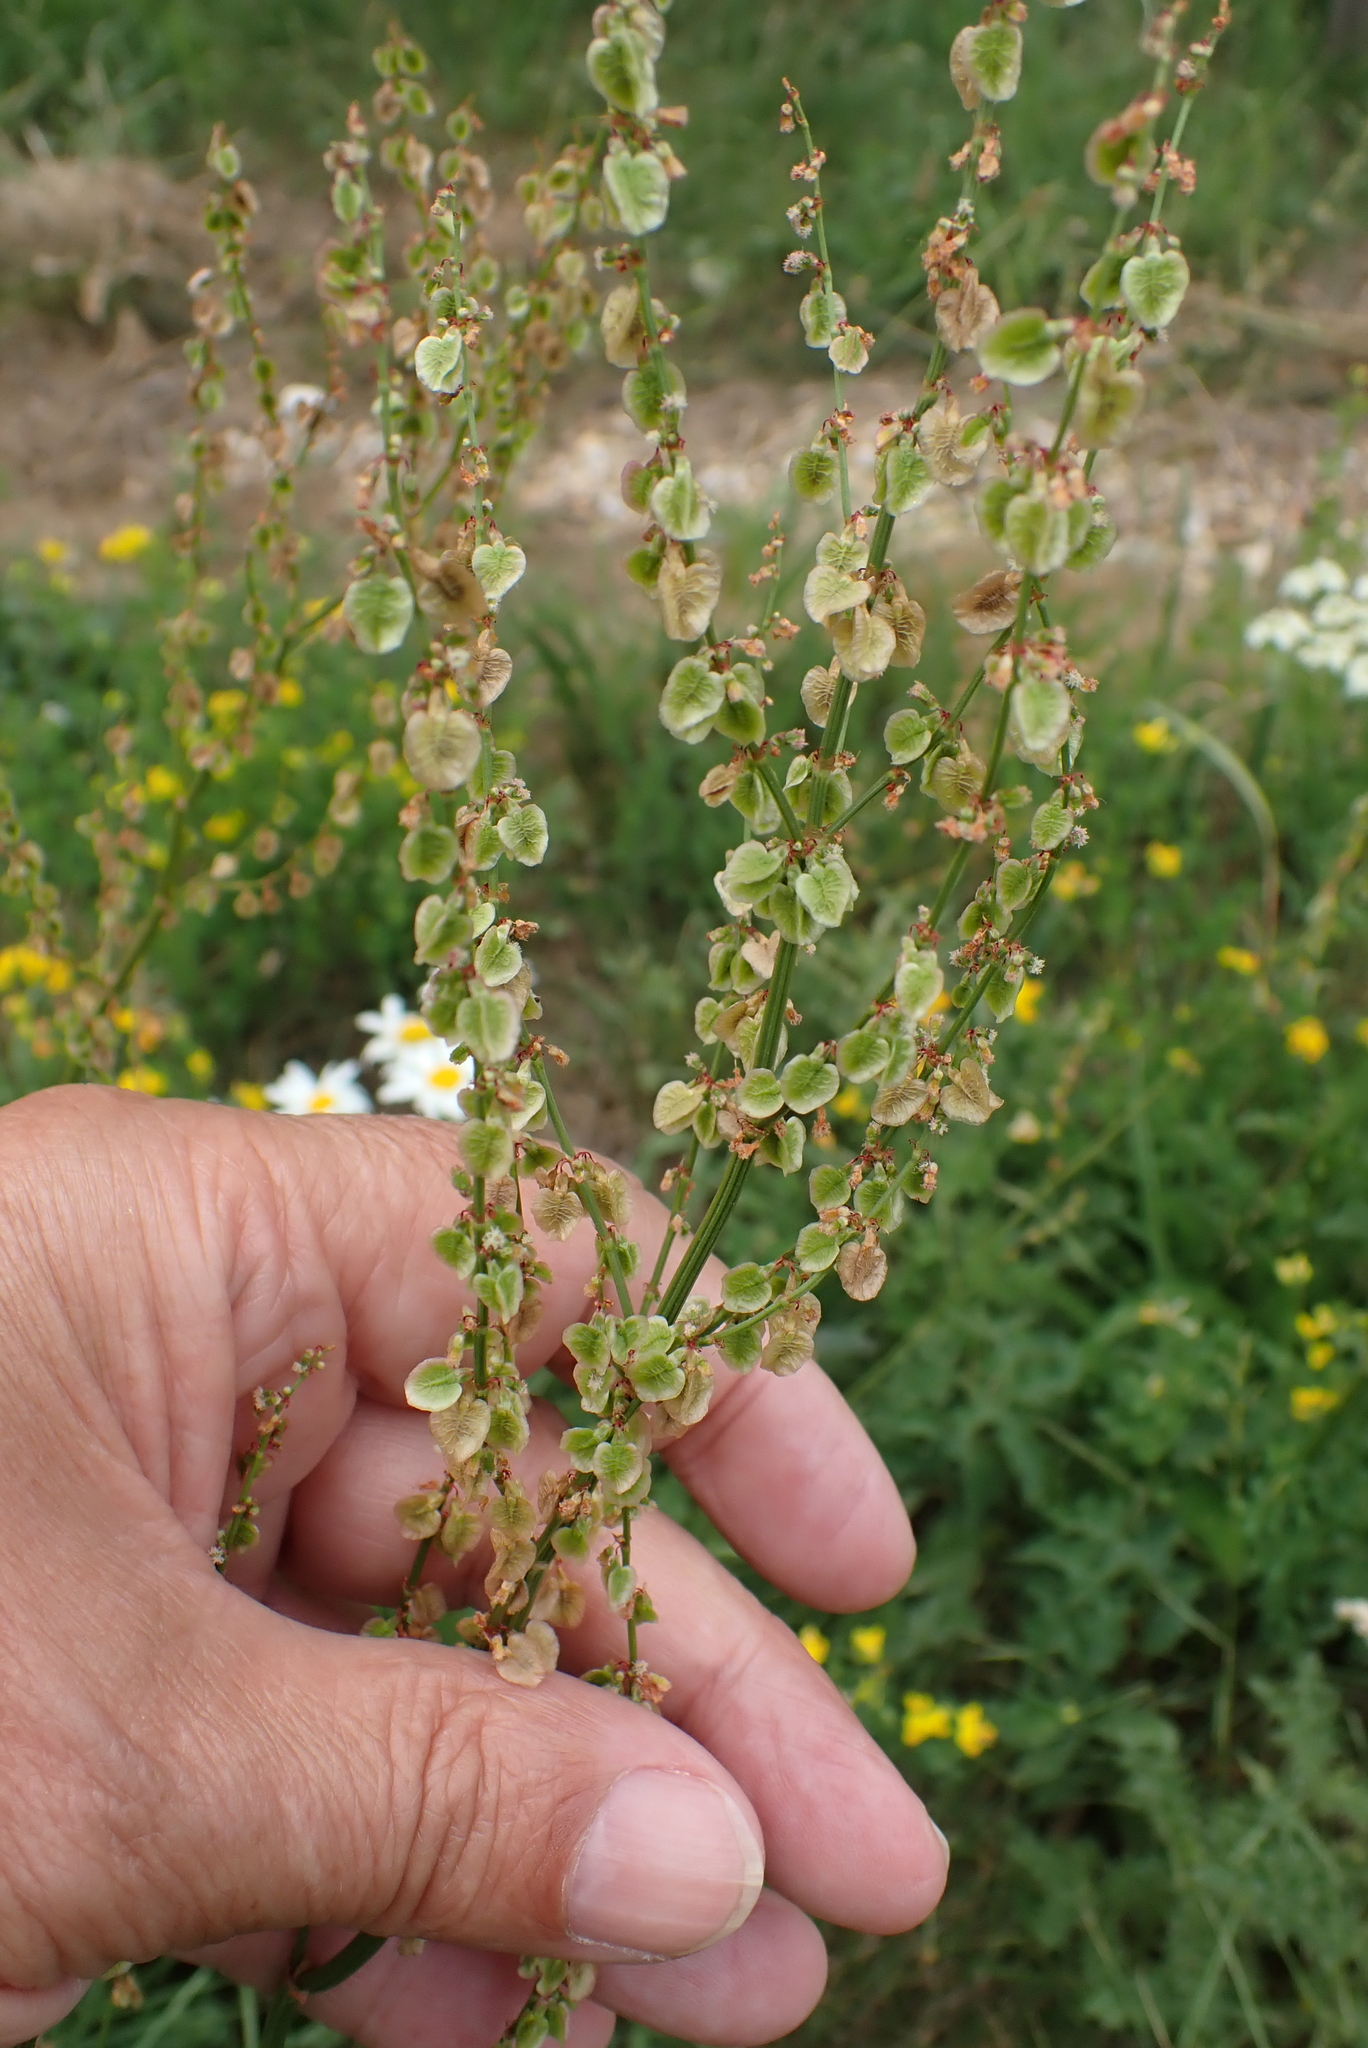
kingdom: Plantae
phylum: Tracheophyta
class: Magnoliopsida
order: Caryophyllales
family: Polygonaceae
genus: Rumex
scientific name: Rumex acetosa
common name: Garden sorrel
